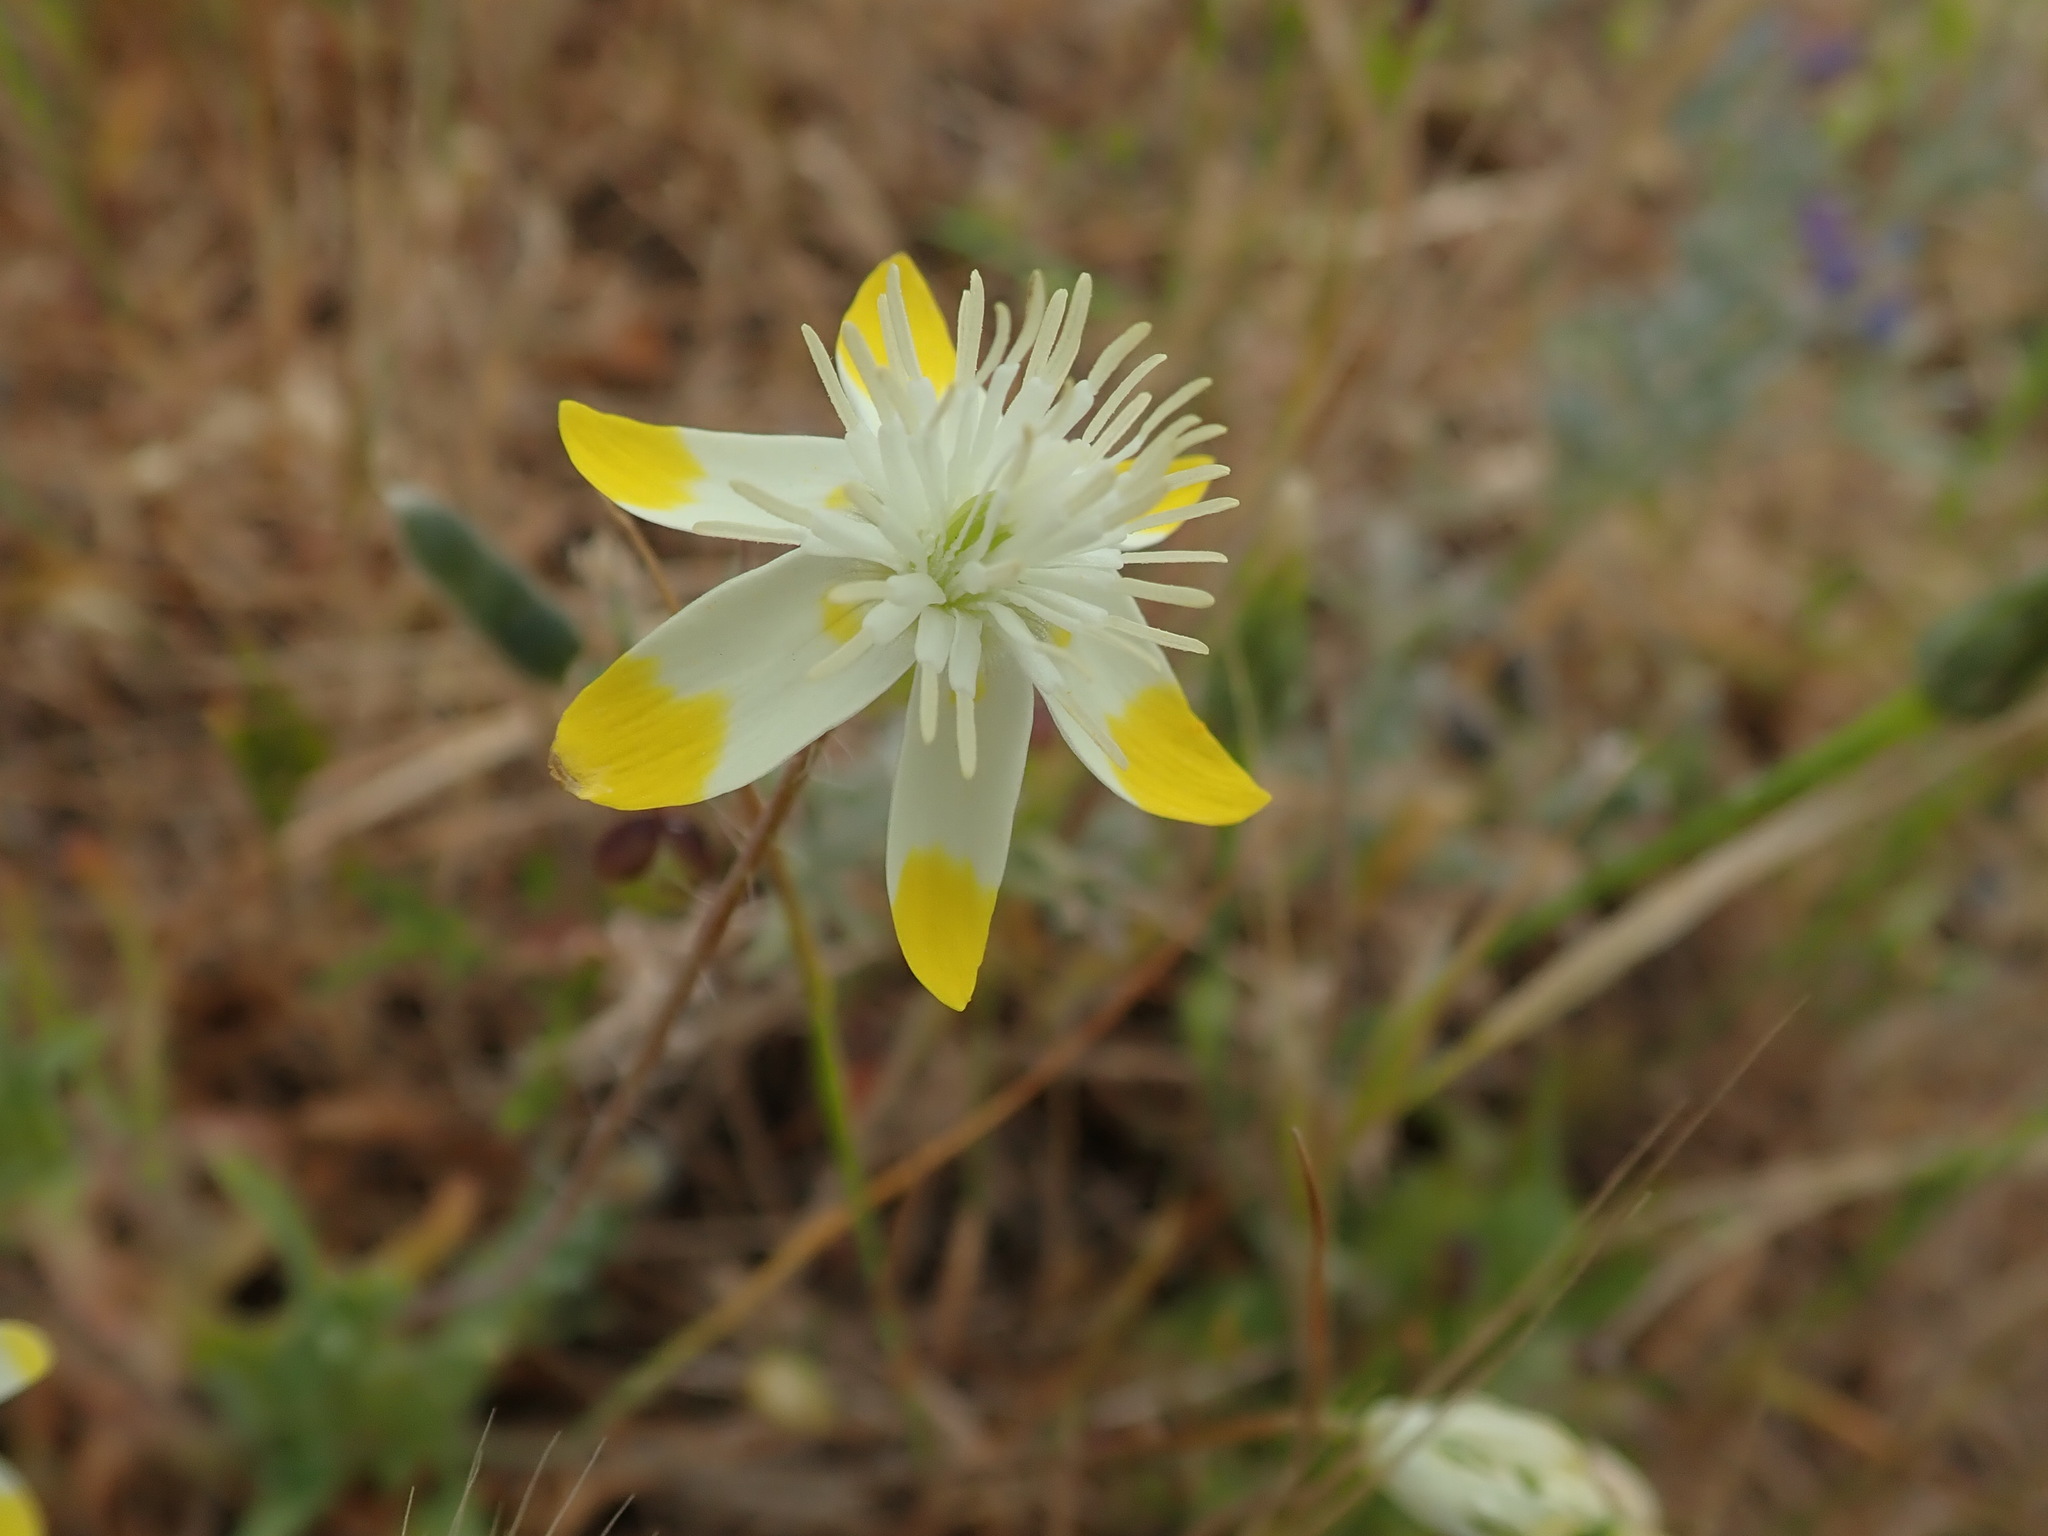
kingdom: Plantae
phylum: Tracheophyta
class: Magnoliopsida
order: Ranunculales
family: Papaveraceae
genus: Platystemon
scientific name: Platystemon californicus
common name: Cream-cups
